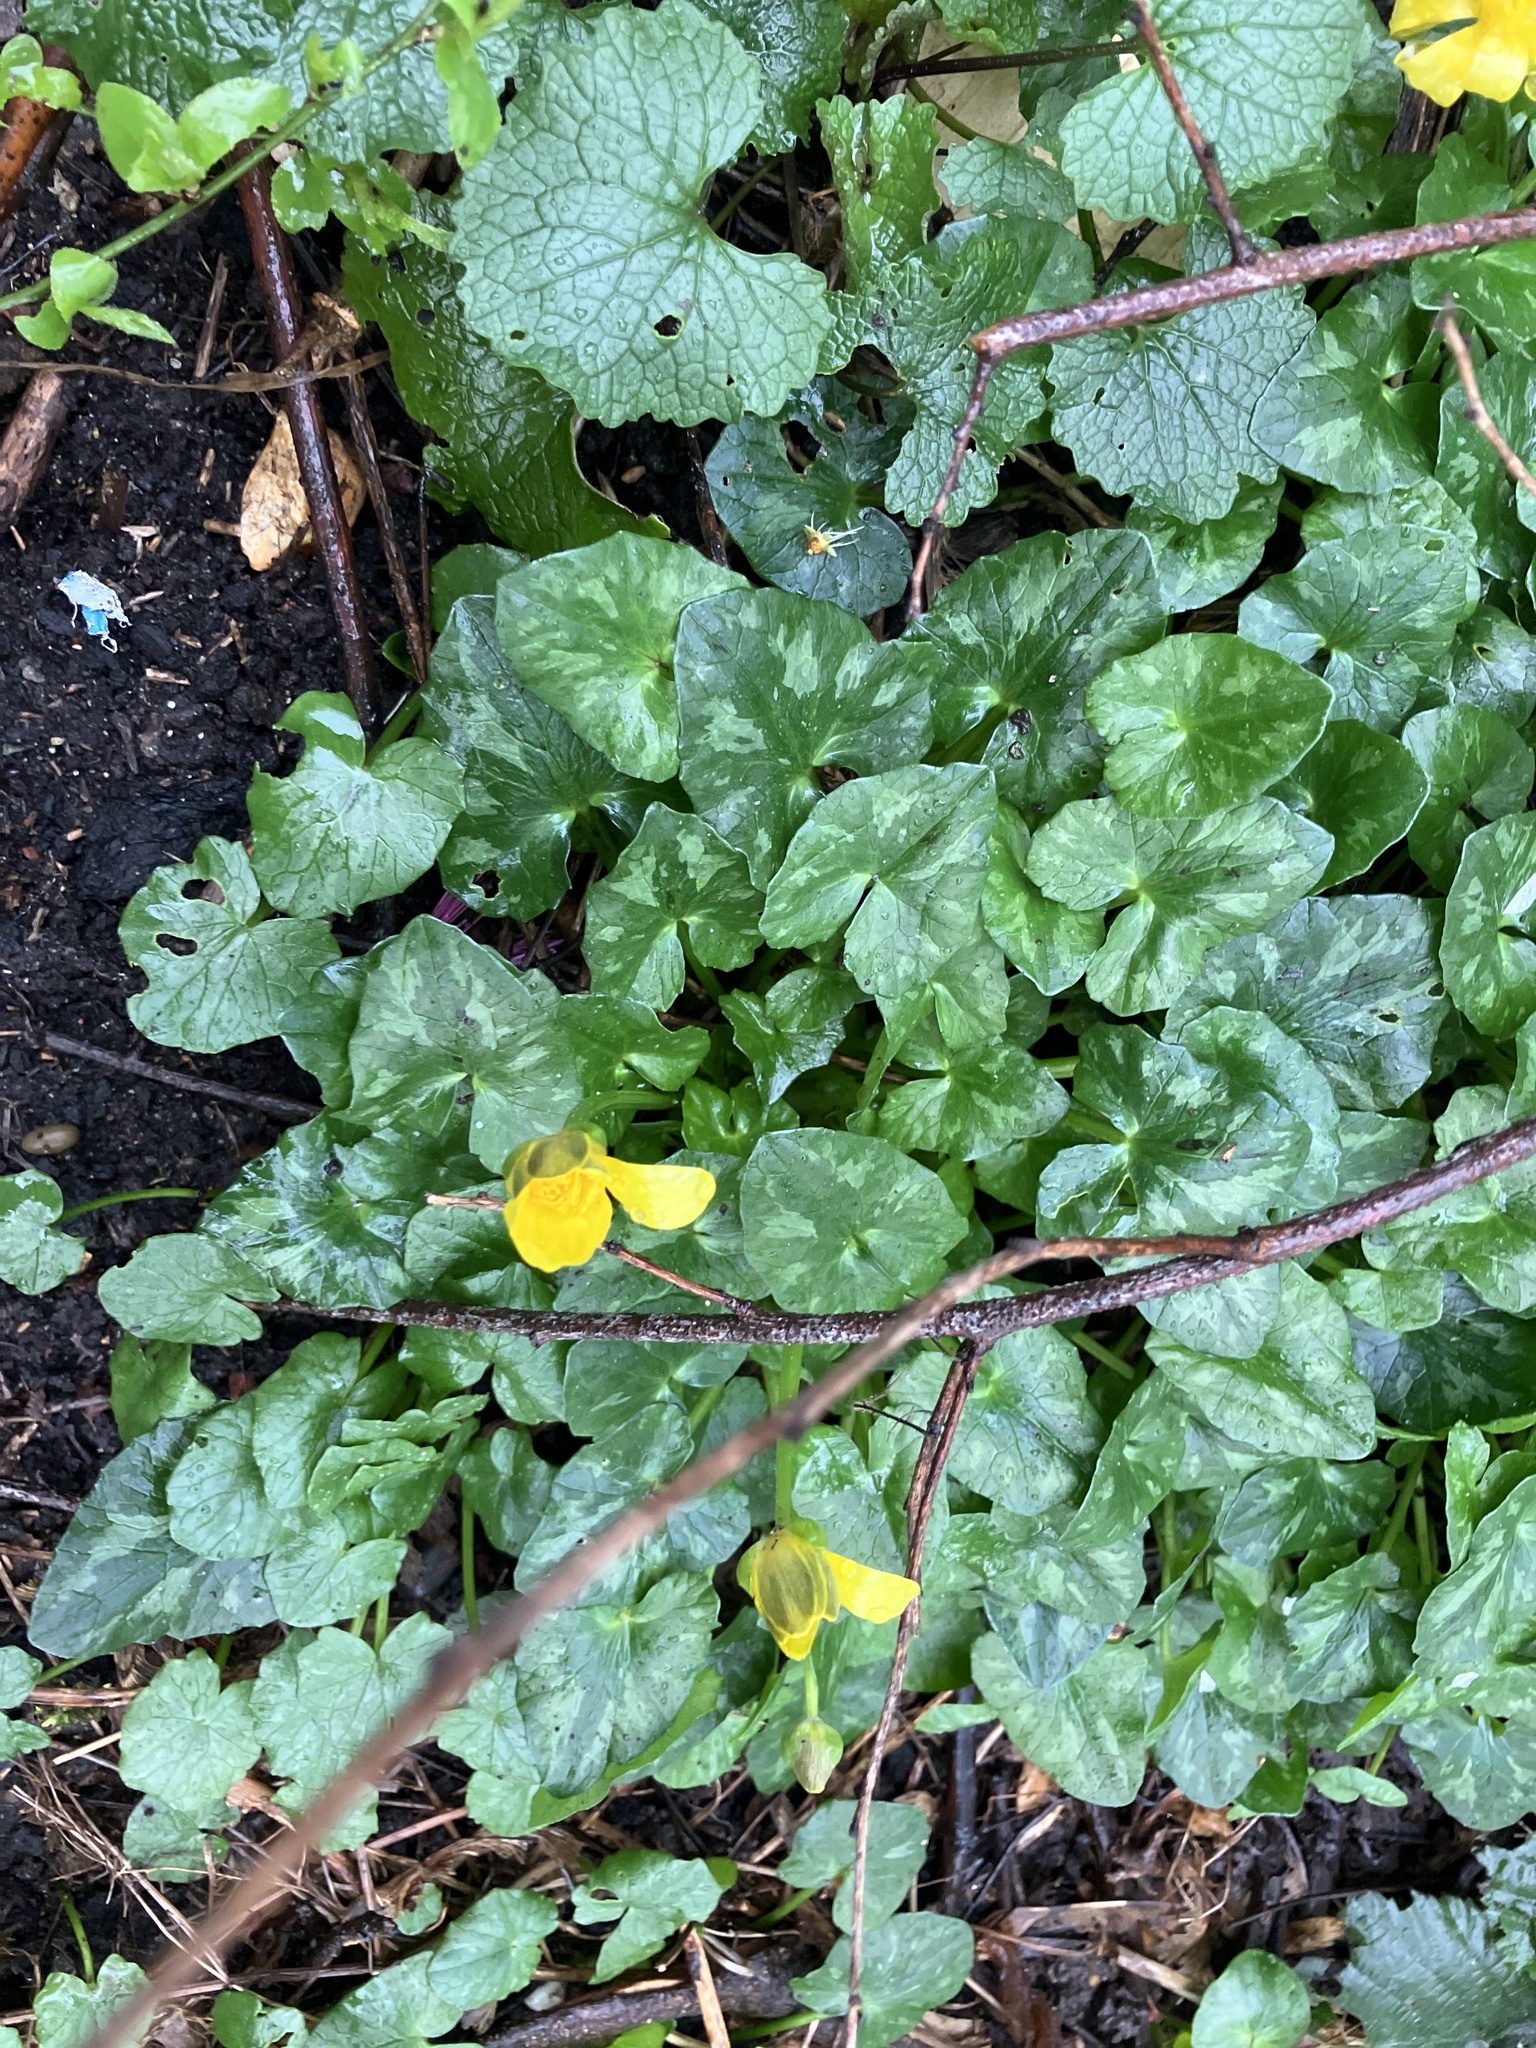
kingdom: Plantae
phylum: Tracheophyta
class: Magnoliopsida
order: Ranunculales
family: Ranunculaceae
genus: Ficaria
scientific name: Ficaria verna
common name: Lesser celandine
